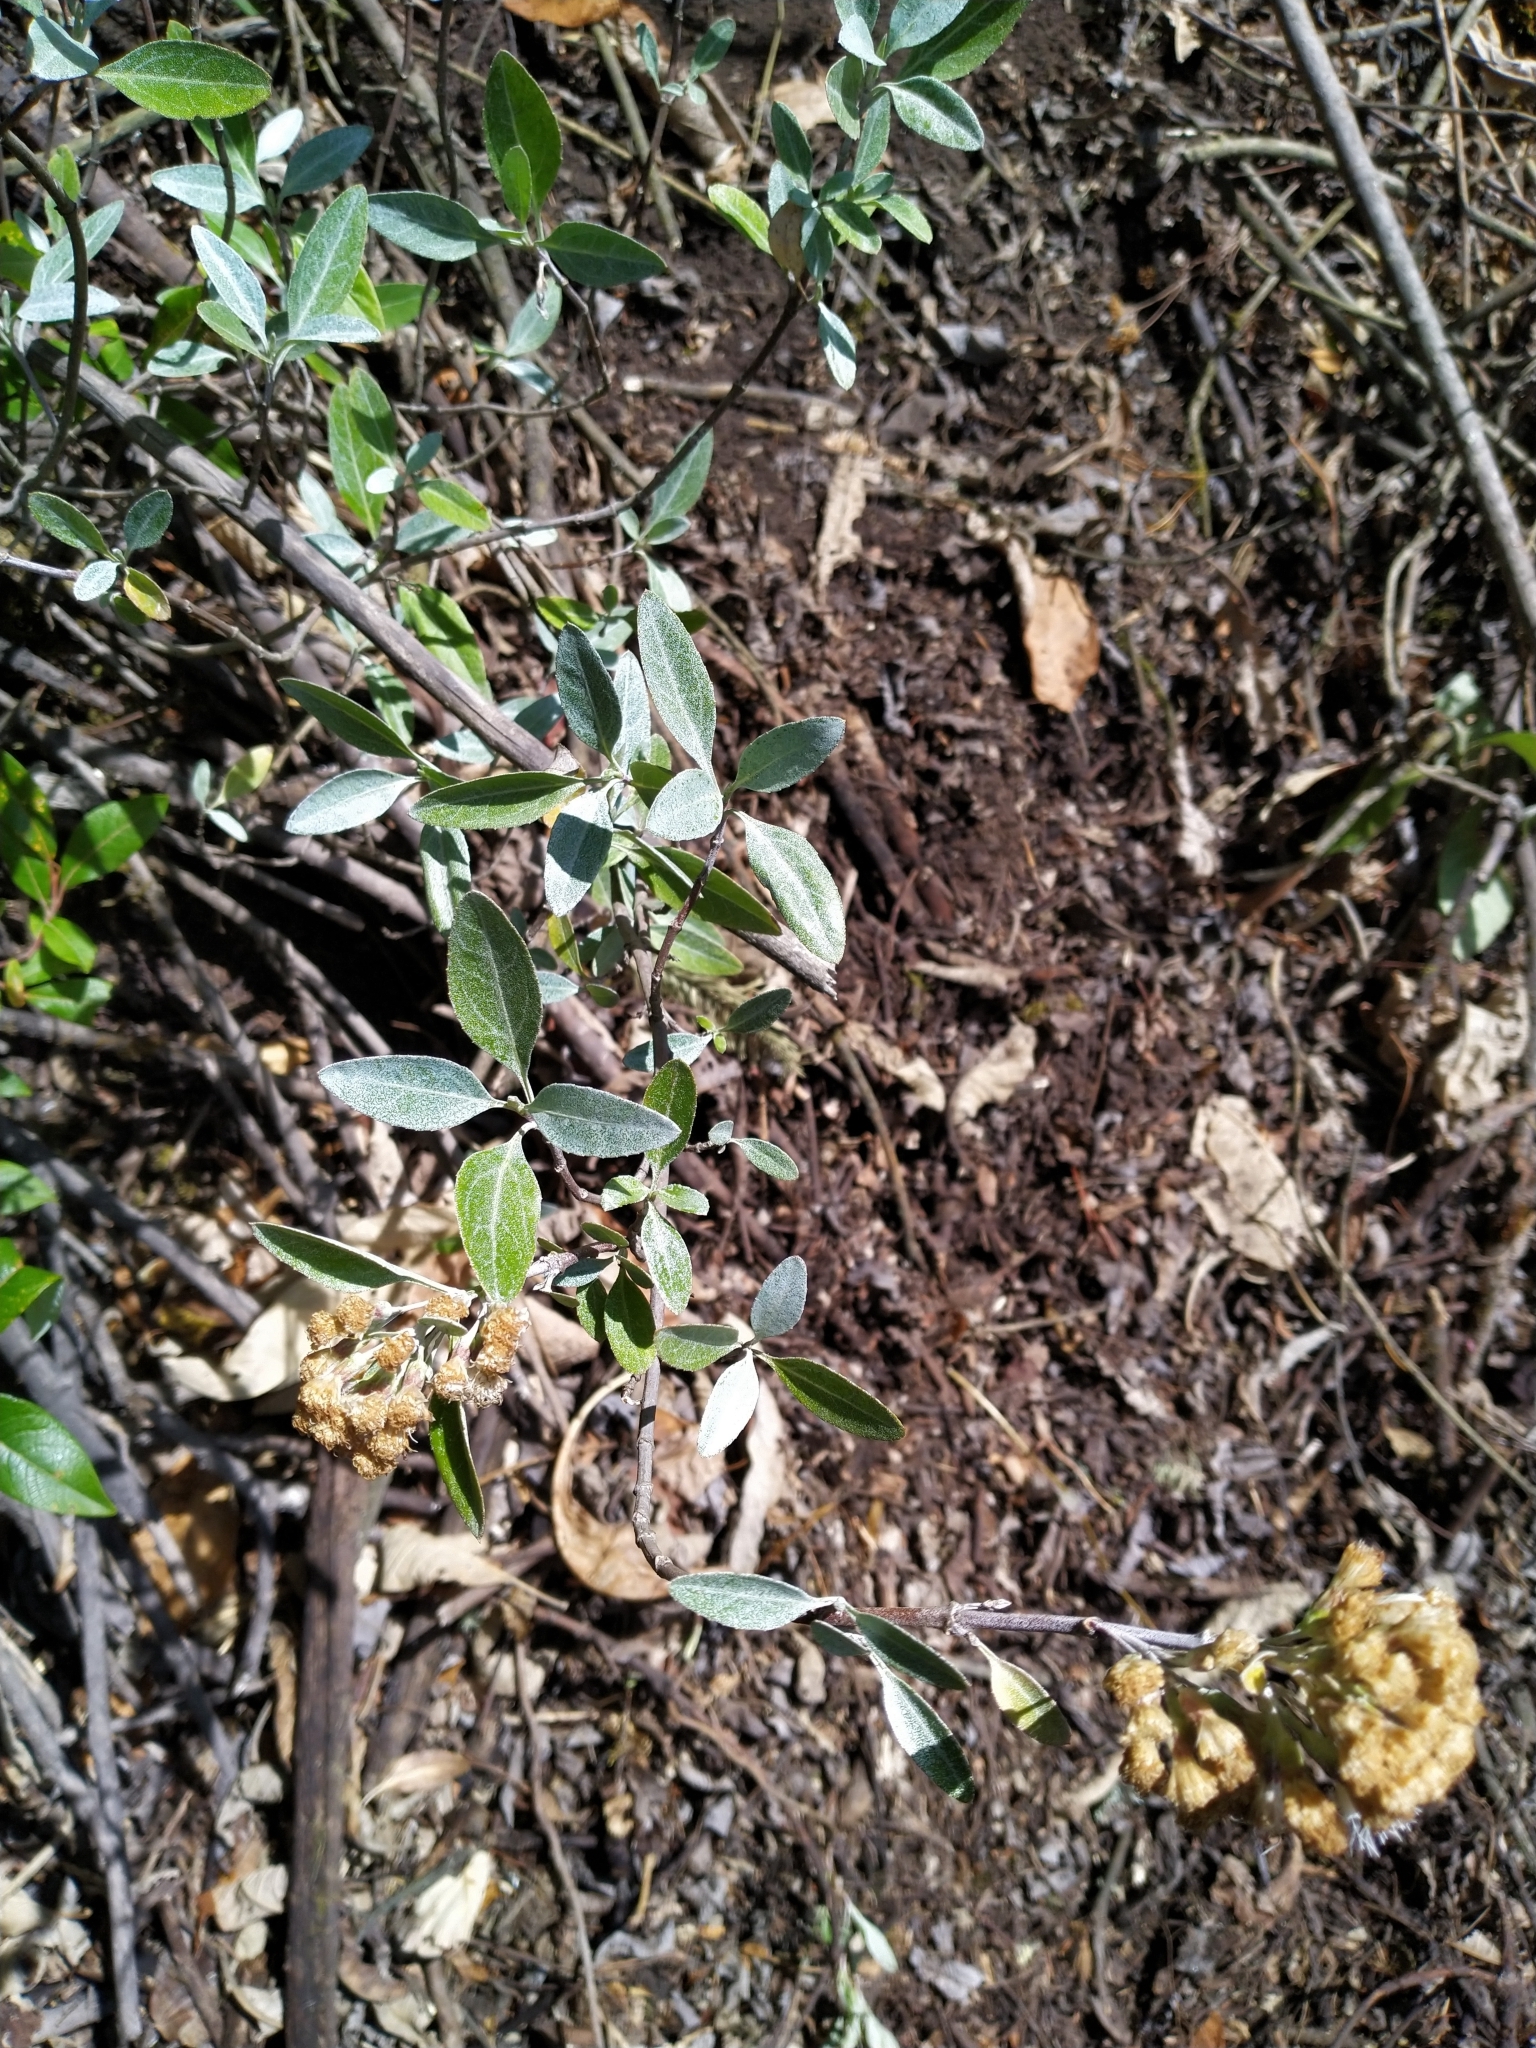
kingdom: Plantae
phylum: Tracheophyta
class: Magnoliopsida
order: Asterales
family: Asteraceae
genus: Ageratina
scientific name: Ageratina glabrata
